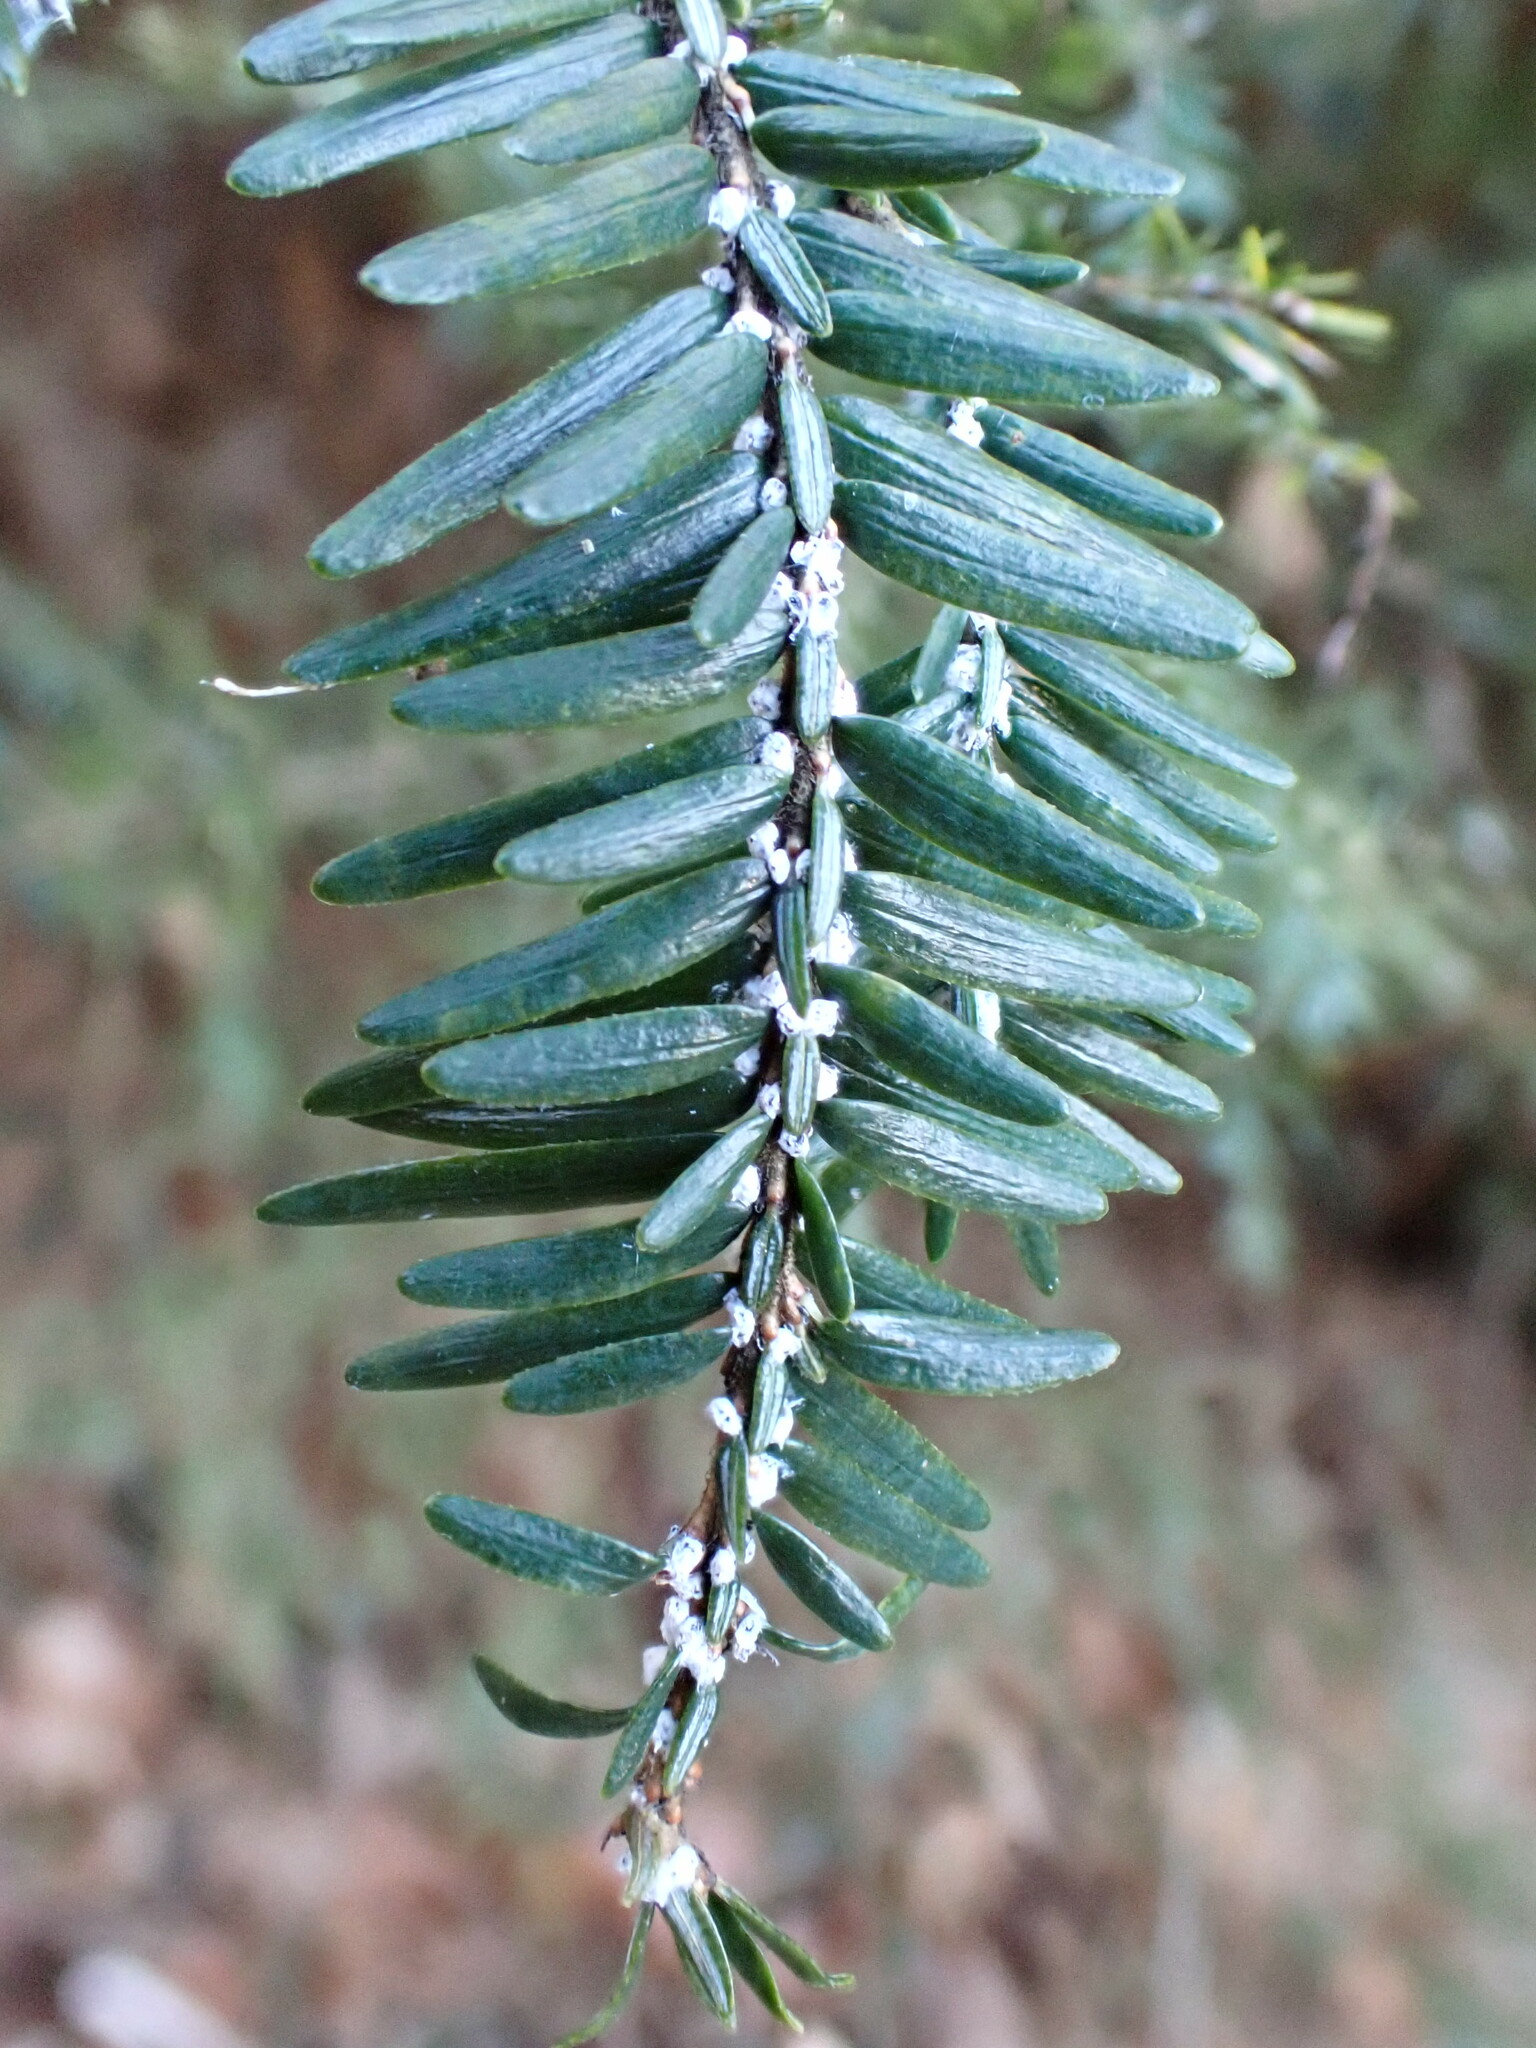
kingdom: Animalia
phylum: Arthropoda
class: Insecta
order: Hemiptera
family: Adelgidae
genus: Adelges
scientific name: Adelges tsugae
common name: Hemlock woolly adelgid
